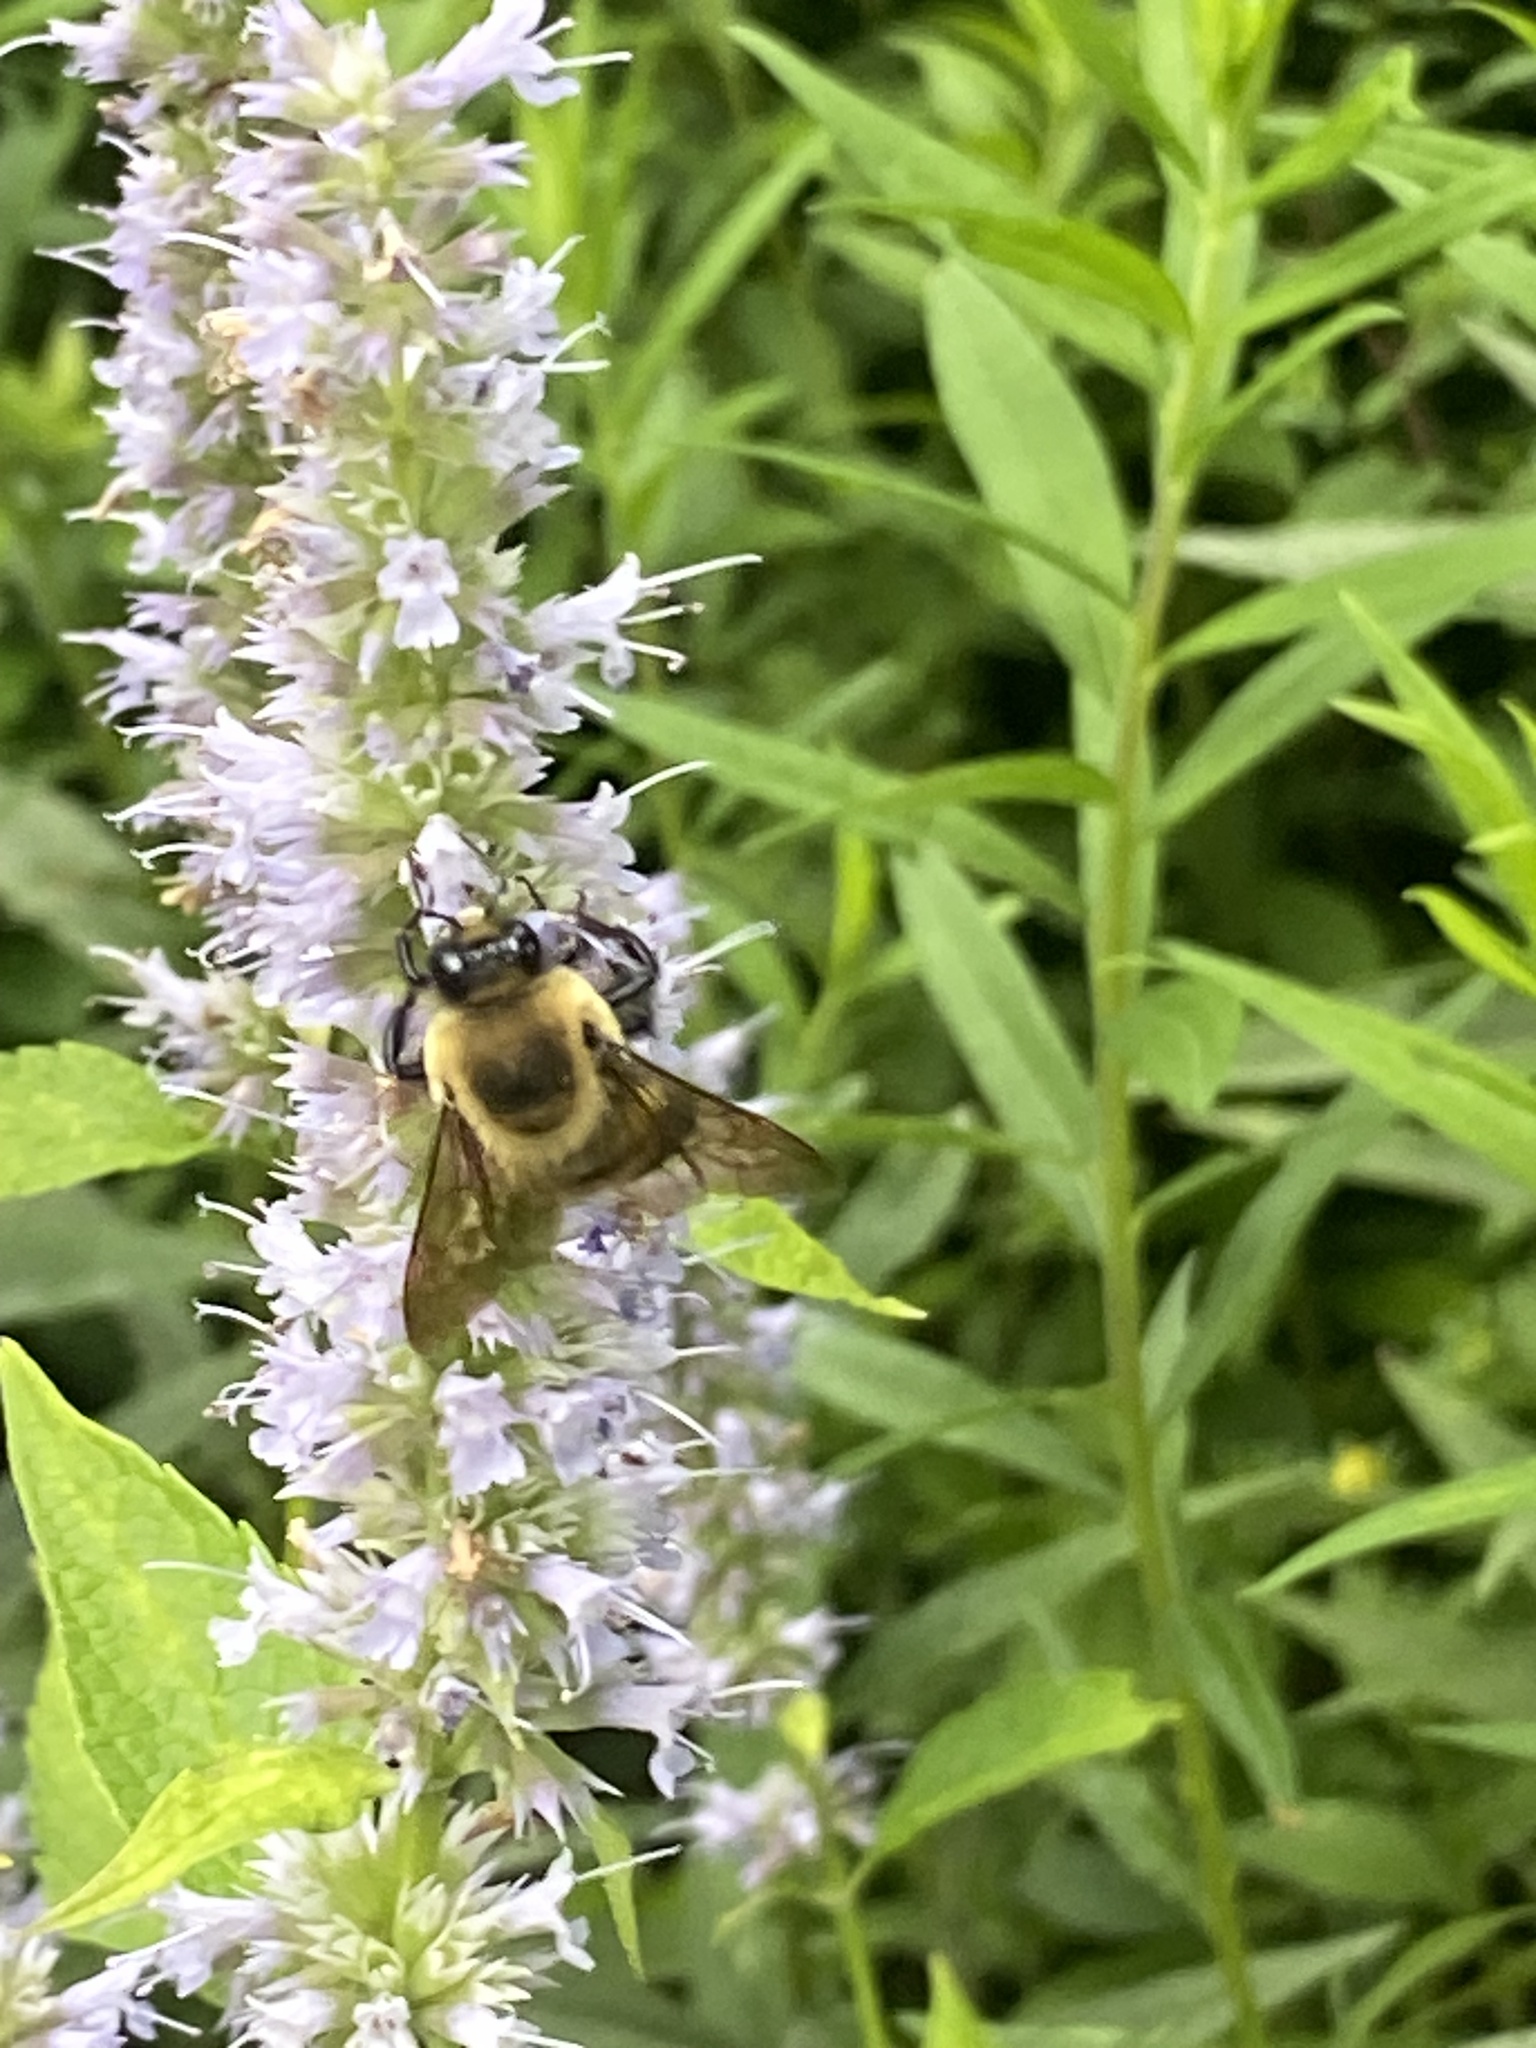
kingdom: Animalia
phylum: Arthropoda
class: Insecta
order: Hymenoptera
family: Apidae
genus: Bombus
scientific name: Bombus griseocollis
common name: Brown-belted bumble bee
